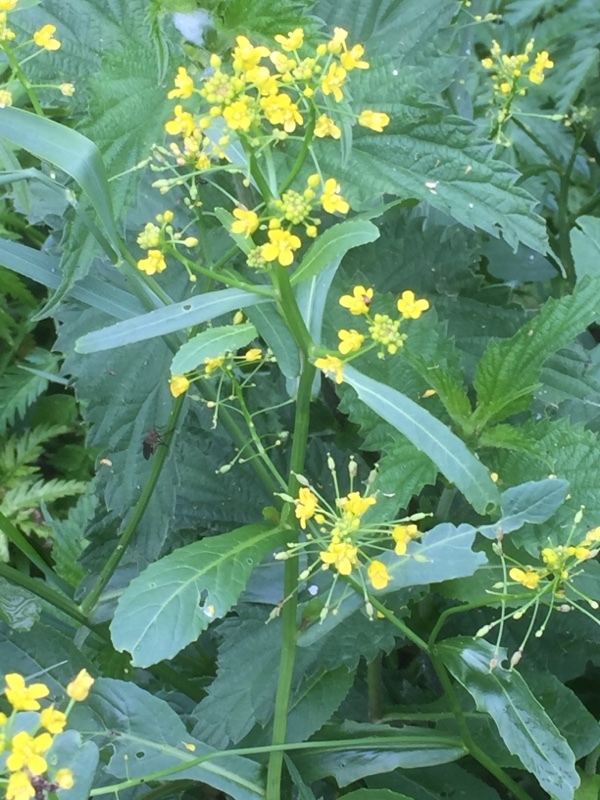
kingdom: Plantae
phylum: Tracheophyta
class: Magnoliopsida
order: Brassicales
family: Brassicaceae
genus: Rorippa
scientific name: Rorippa amphibia
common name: Great yellow-cress
